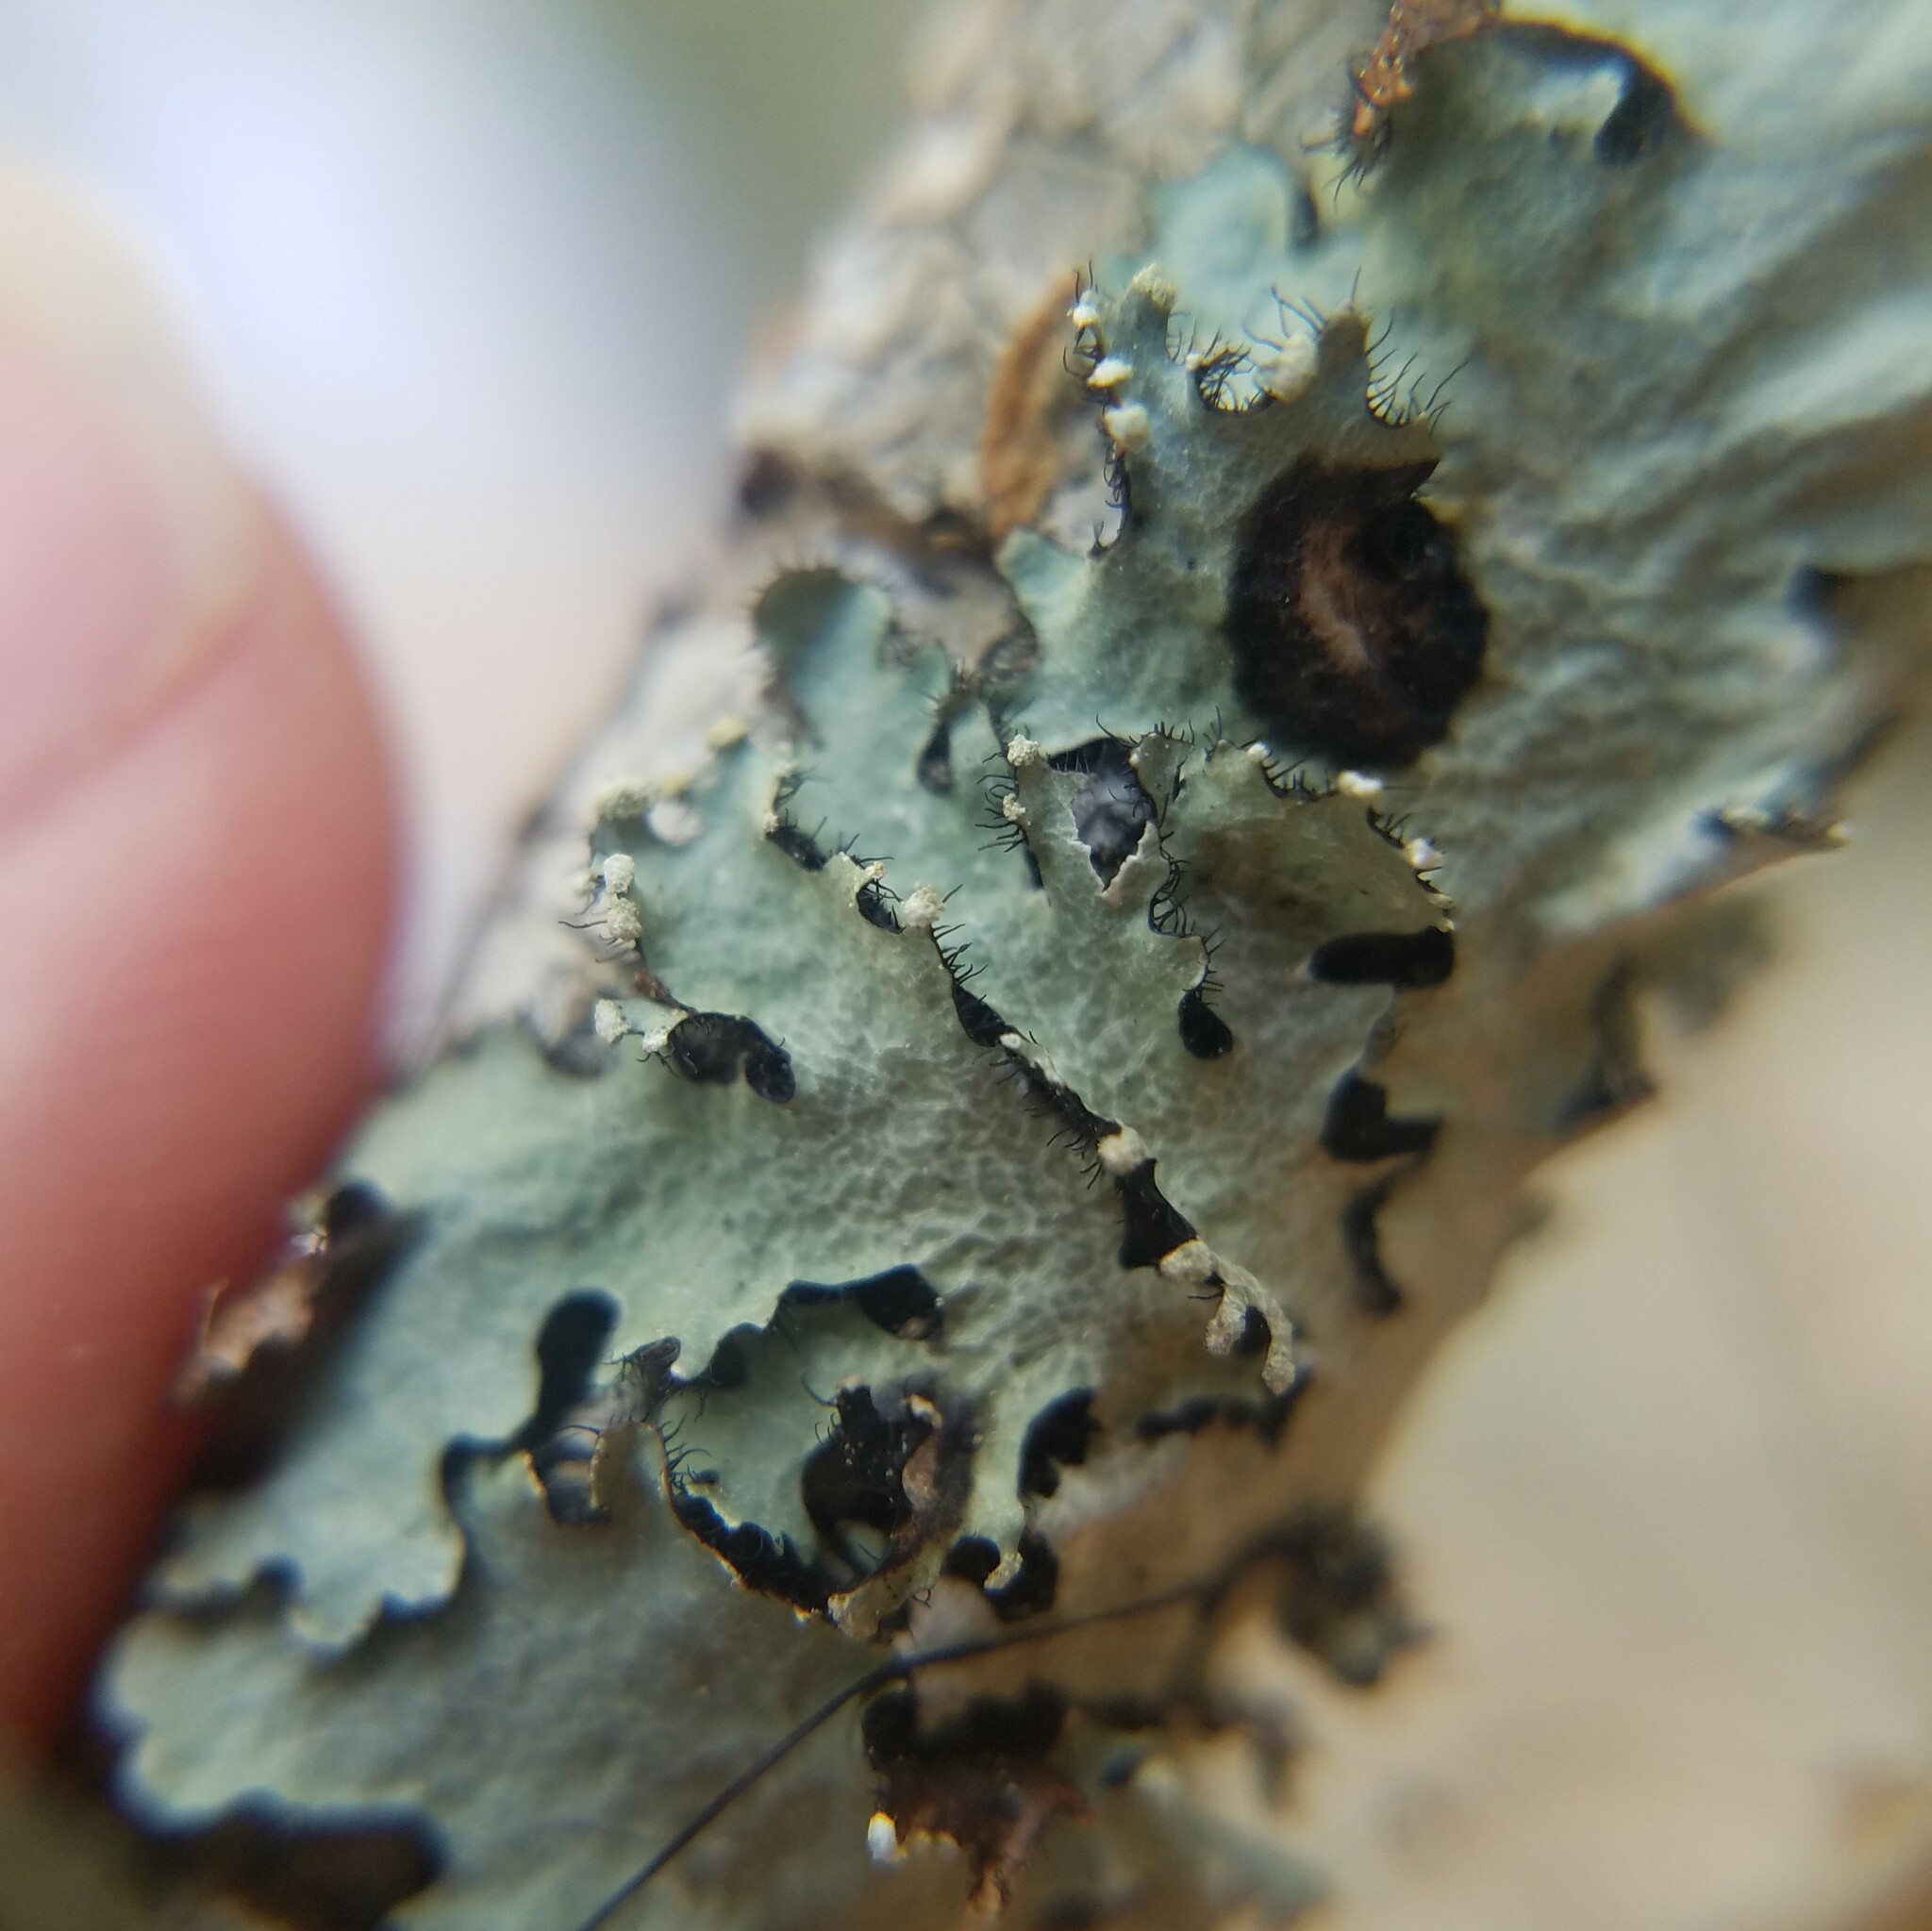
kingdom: Fungi
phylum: Ascomycota
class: Lecanoromycetes
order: Lecanorales
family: Parmeliaceae
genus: Parmotrema
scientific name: Parmotrema reticulatum
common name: Black sheet lichen
